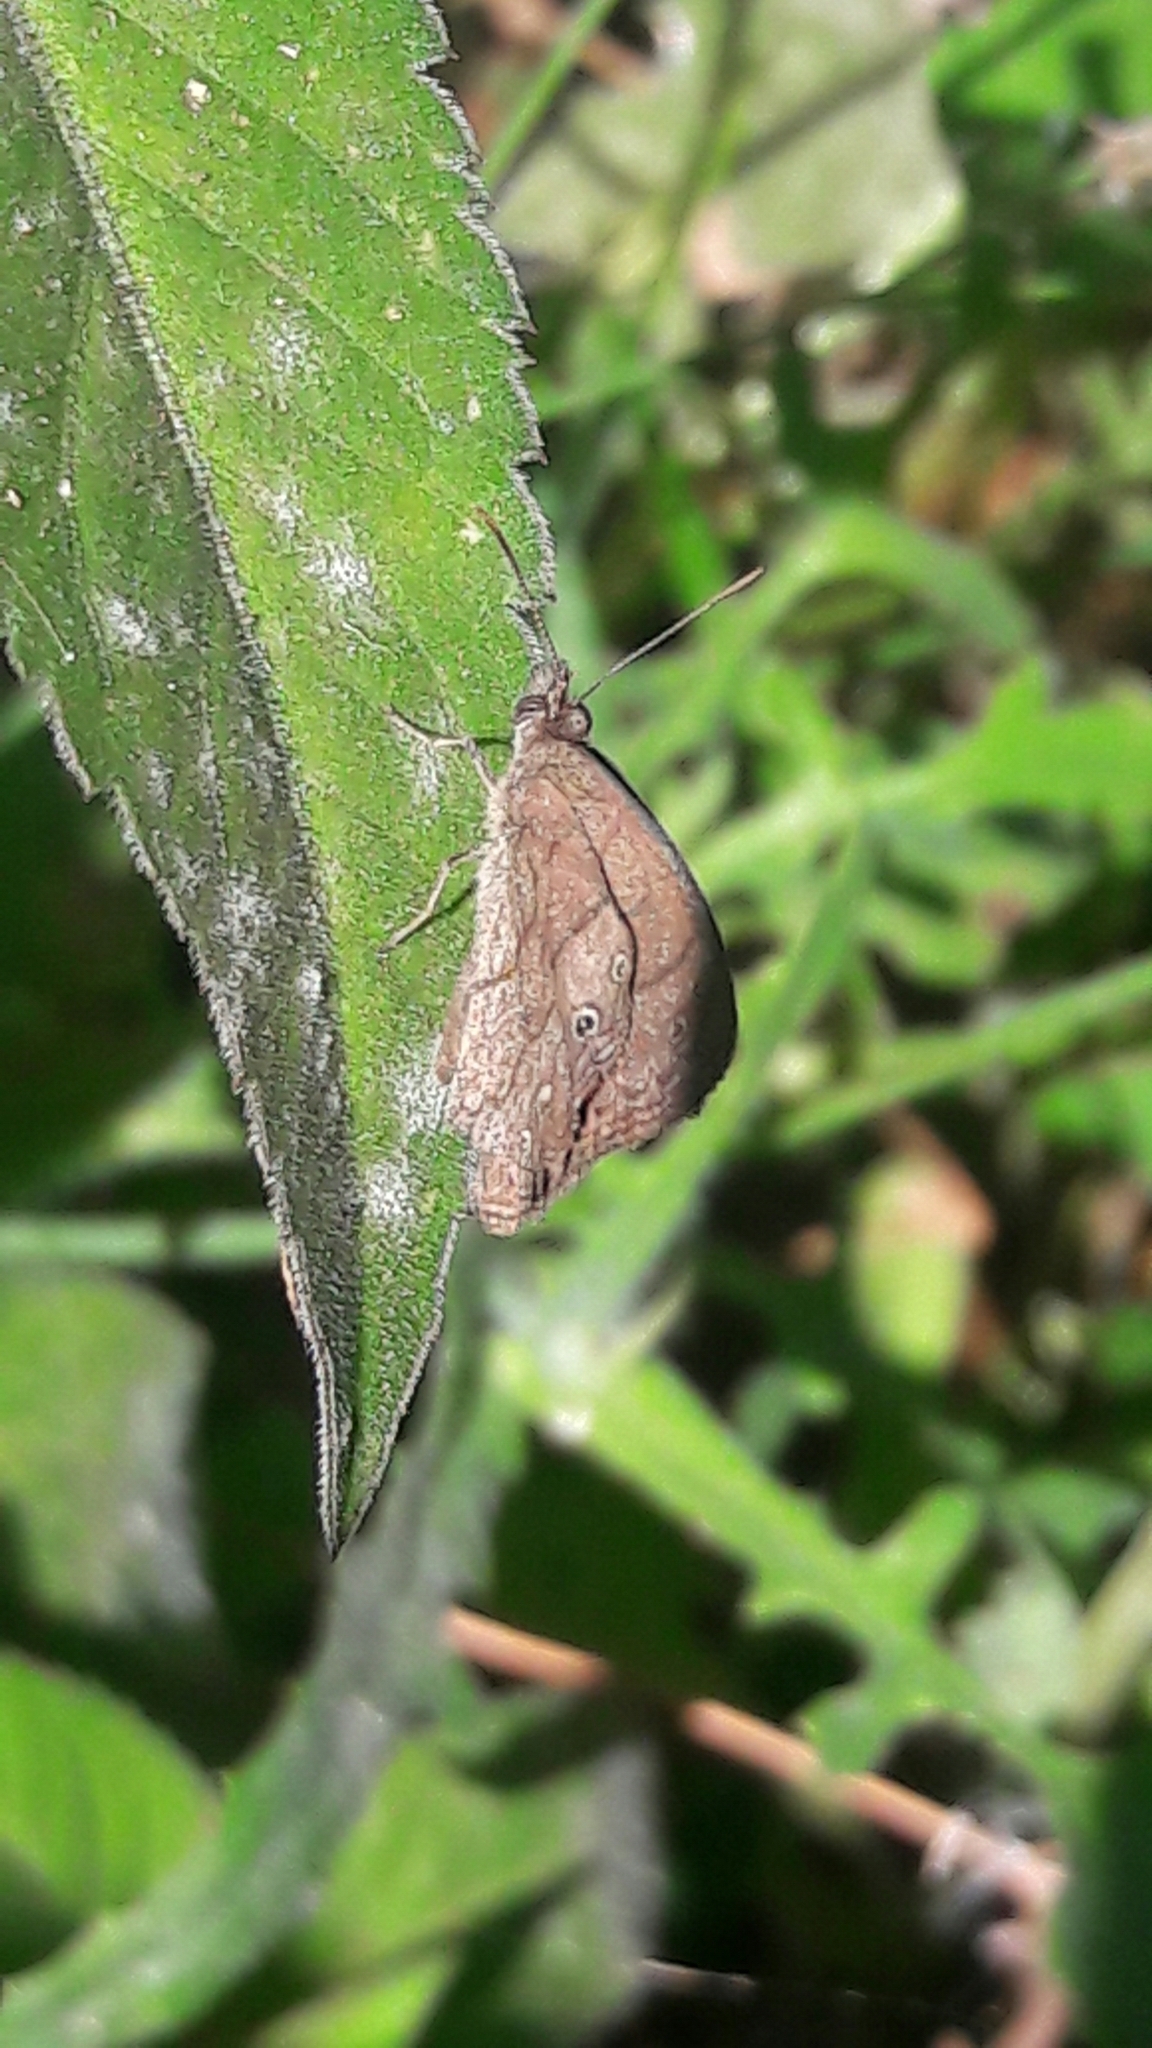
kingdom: Animalia
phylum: Arthropoda
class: Insecta
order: Lepidoptera
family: Nymphalidae
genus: Euptychiina
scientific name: Euptychiina
